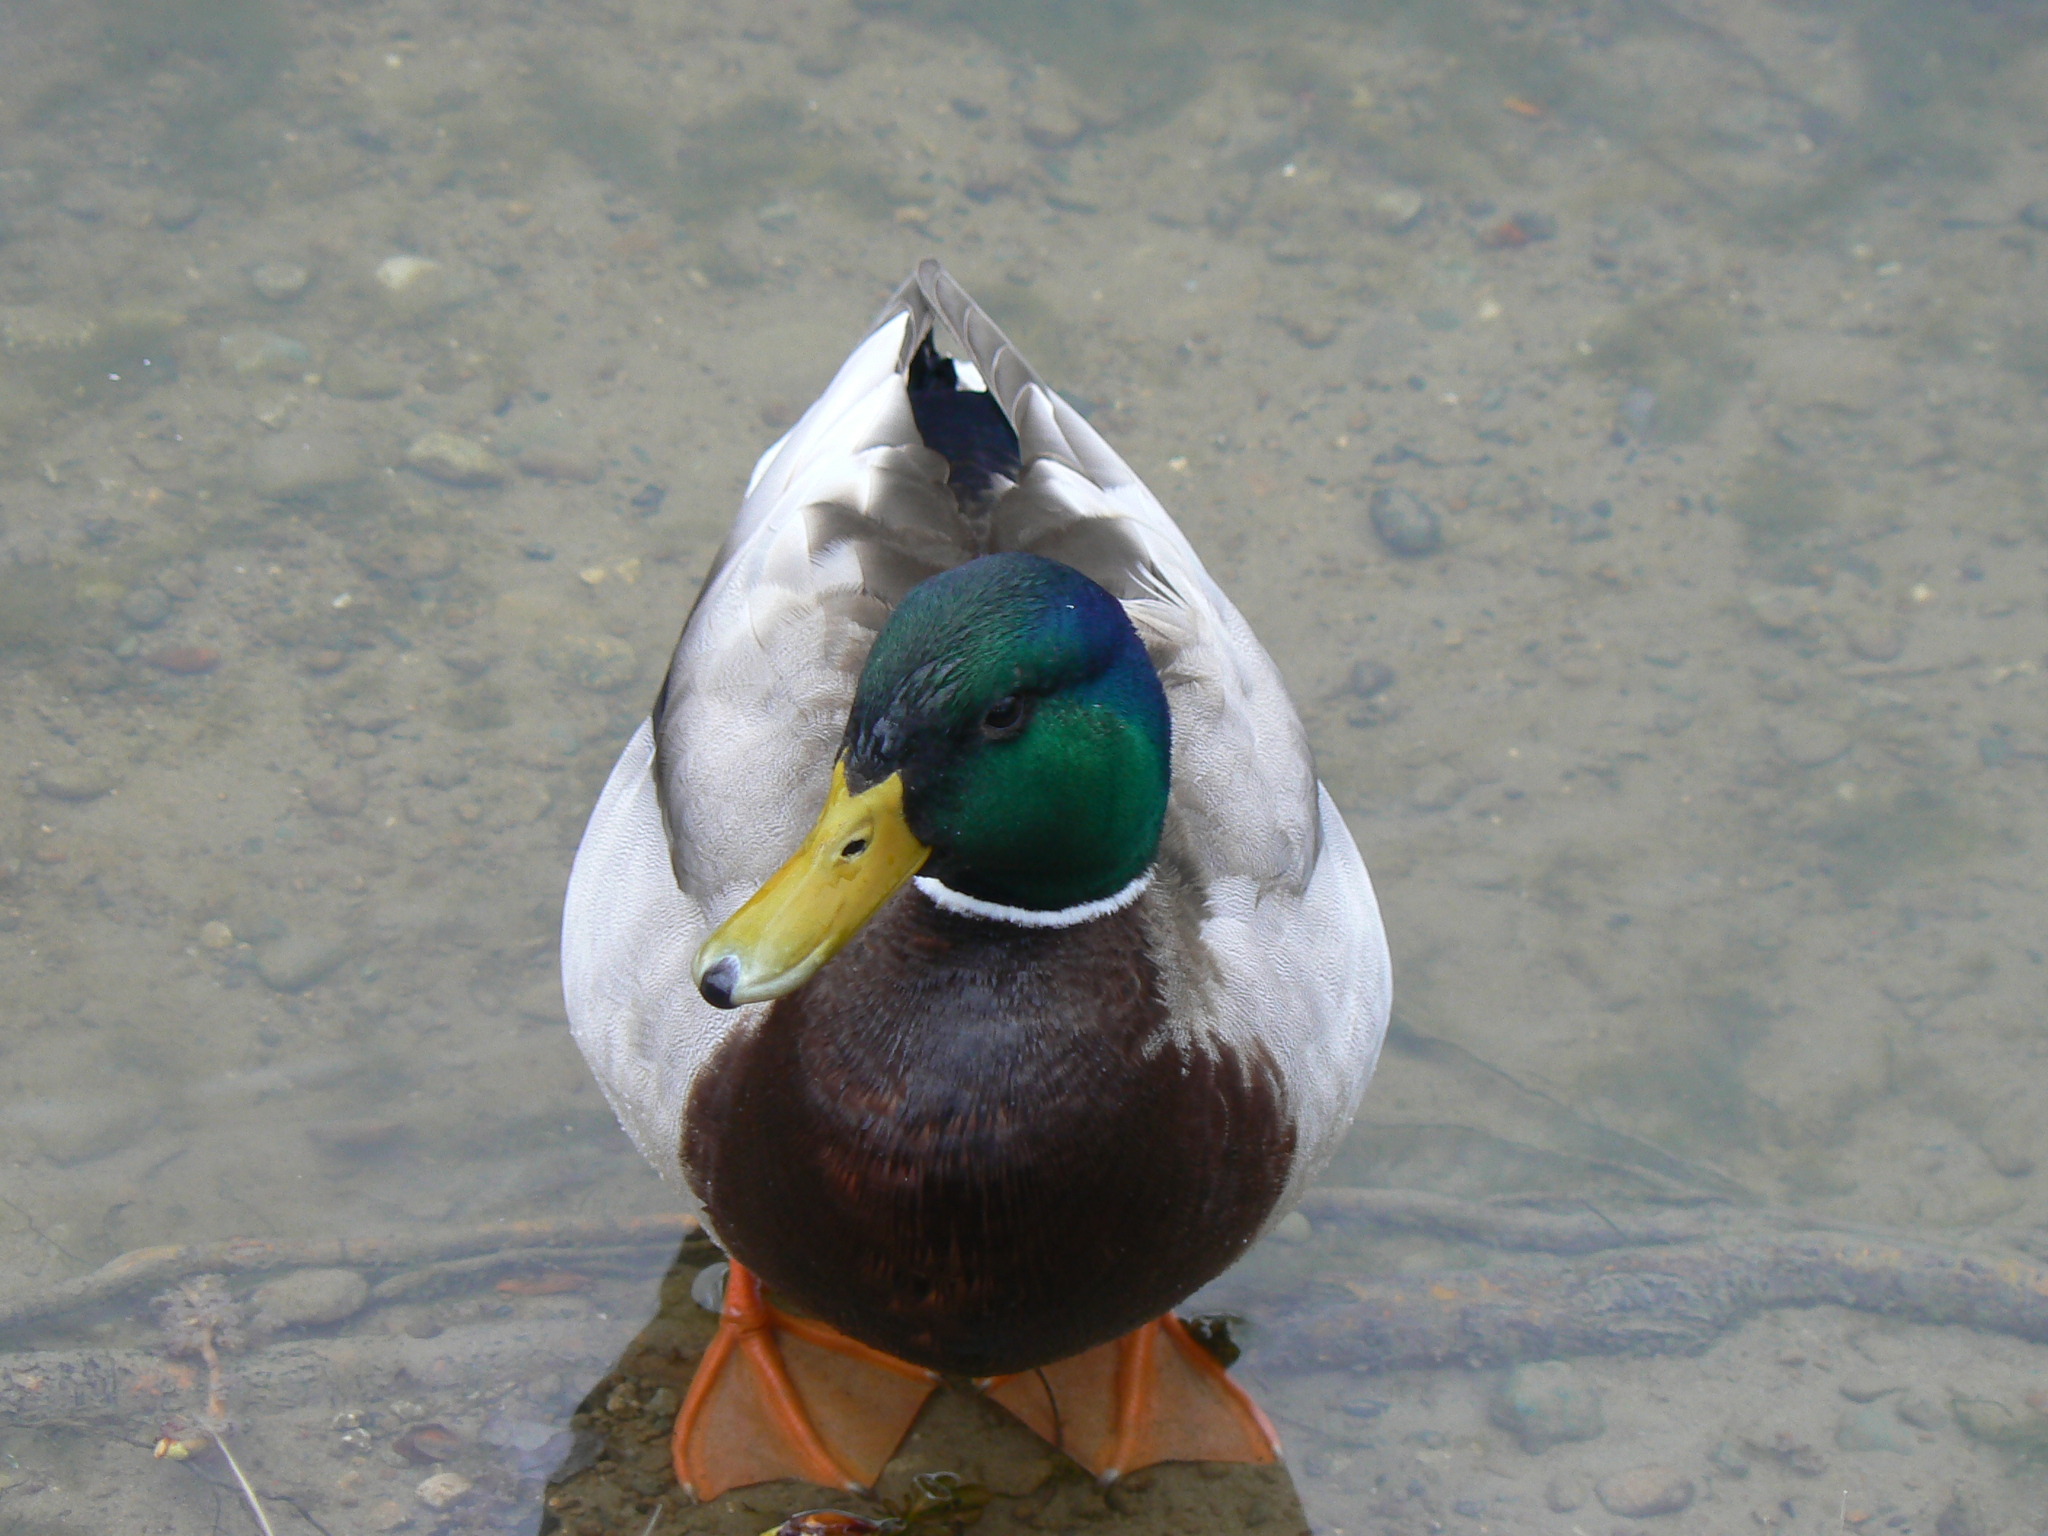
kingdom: Animalia
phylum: Chordata
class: Aves
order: Anseriformes
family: Anatidae
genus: Anas
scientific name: Anas platyrhynchos
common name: Mallard
